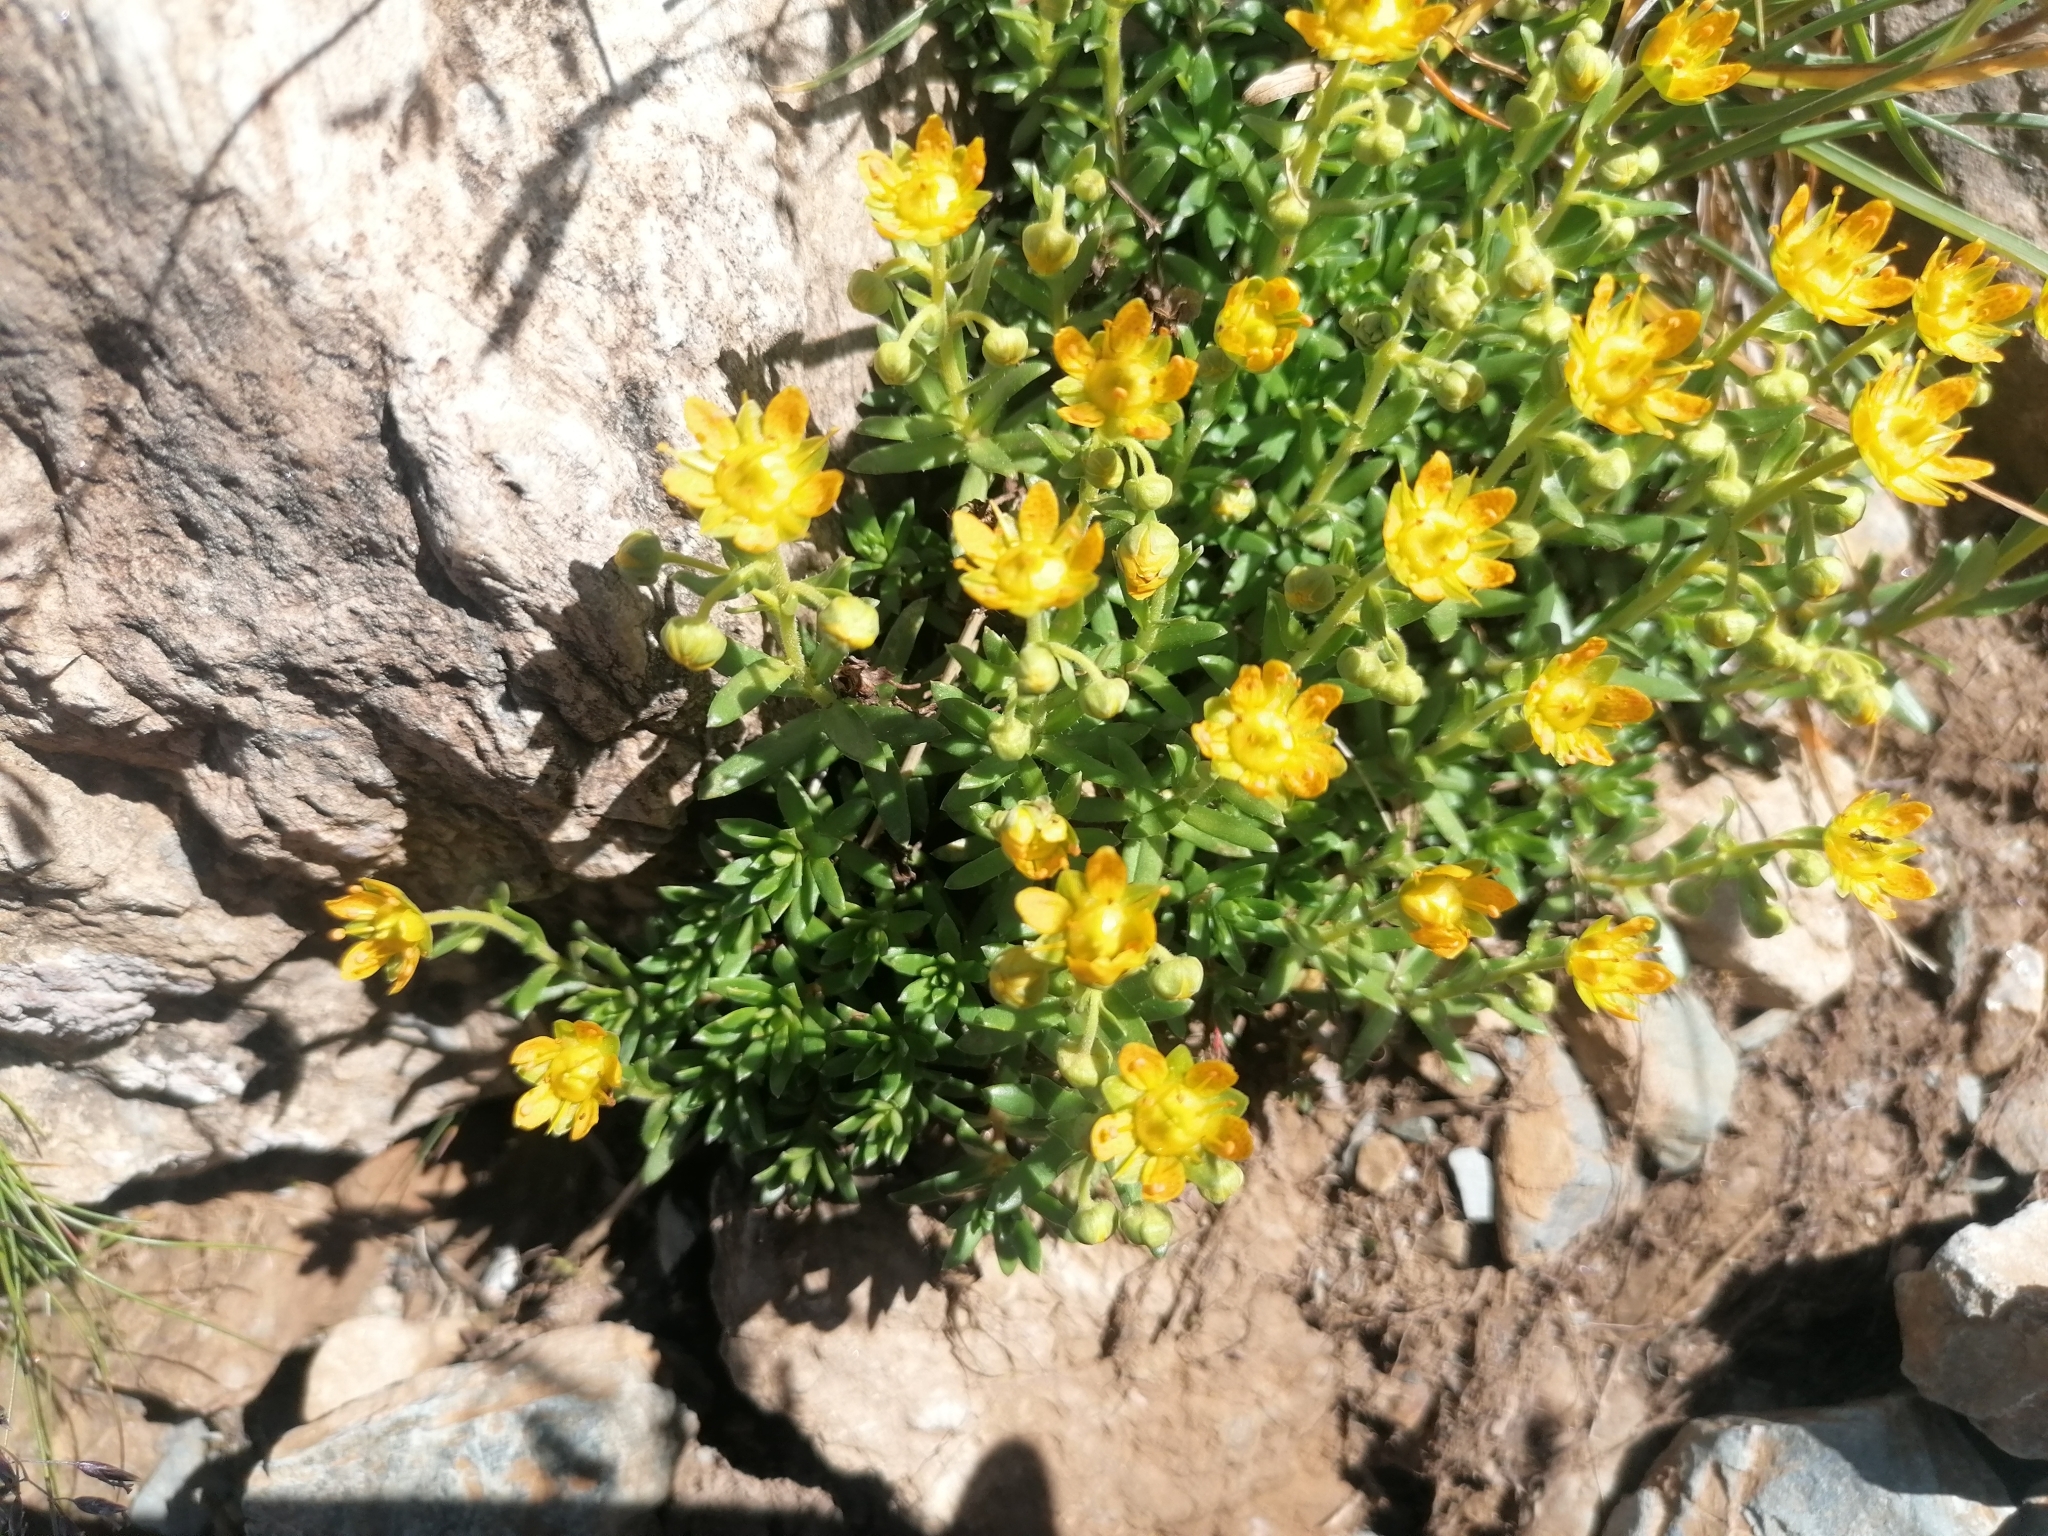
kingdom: Plantae
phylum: Tracheophyta
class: Magnoliopsida
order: Saxifragales
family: Saxifragaceae
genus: Saxifraga
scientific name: Saxifraga aizoides
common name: Yellow mountain saxifrage
